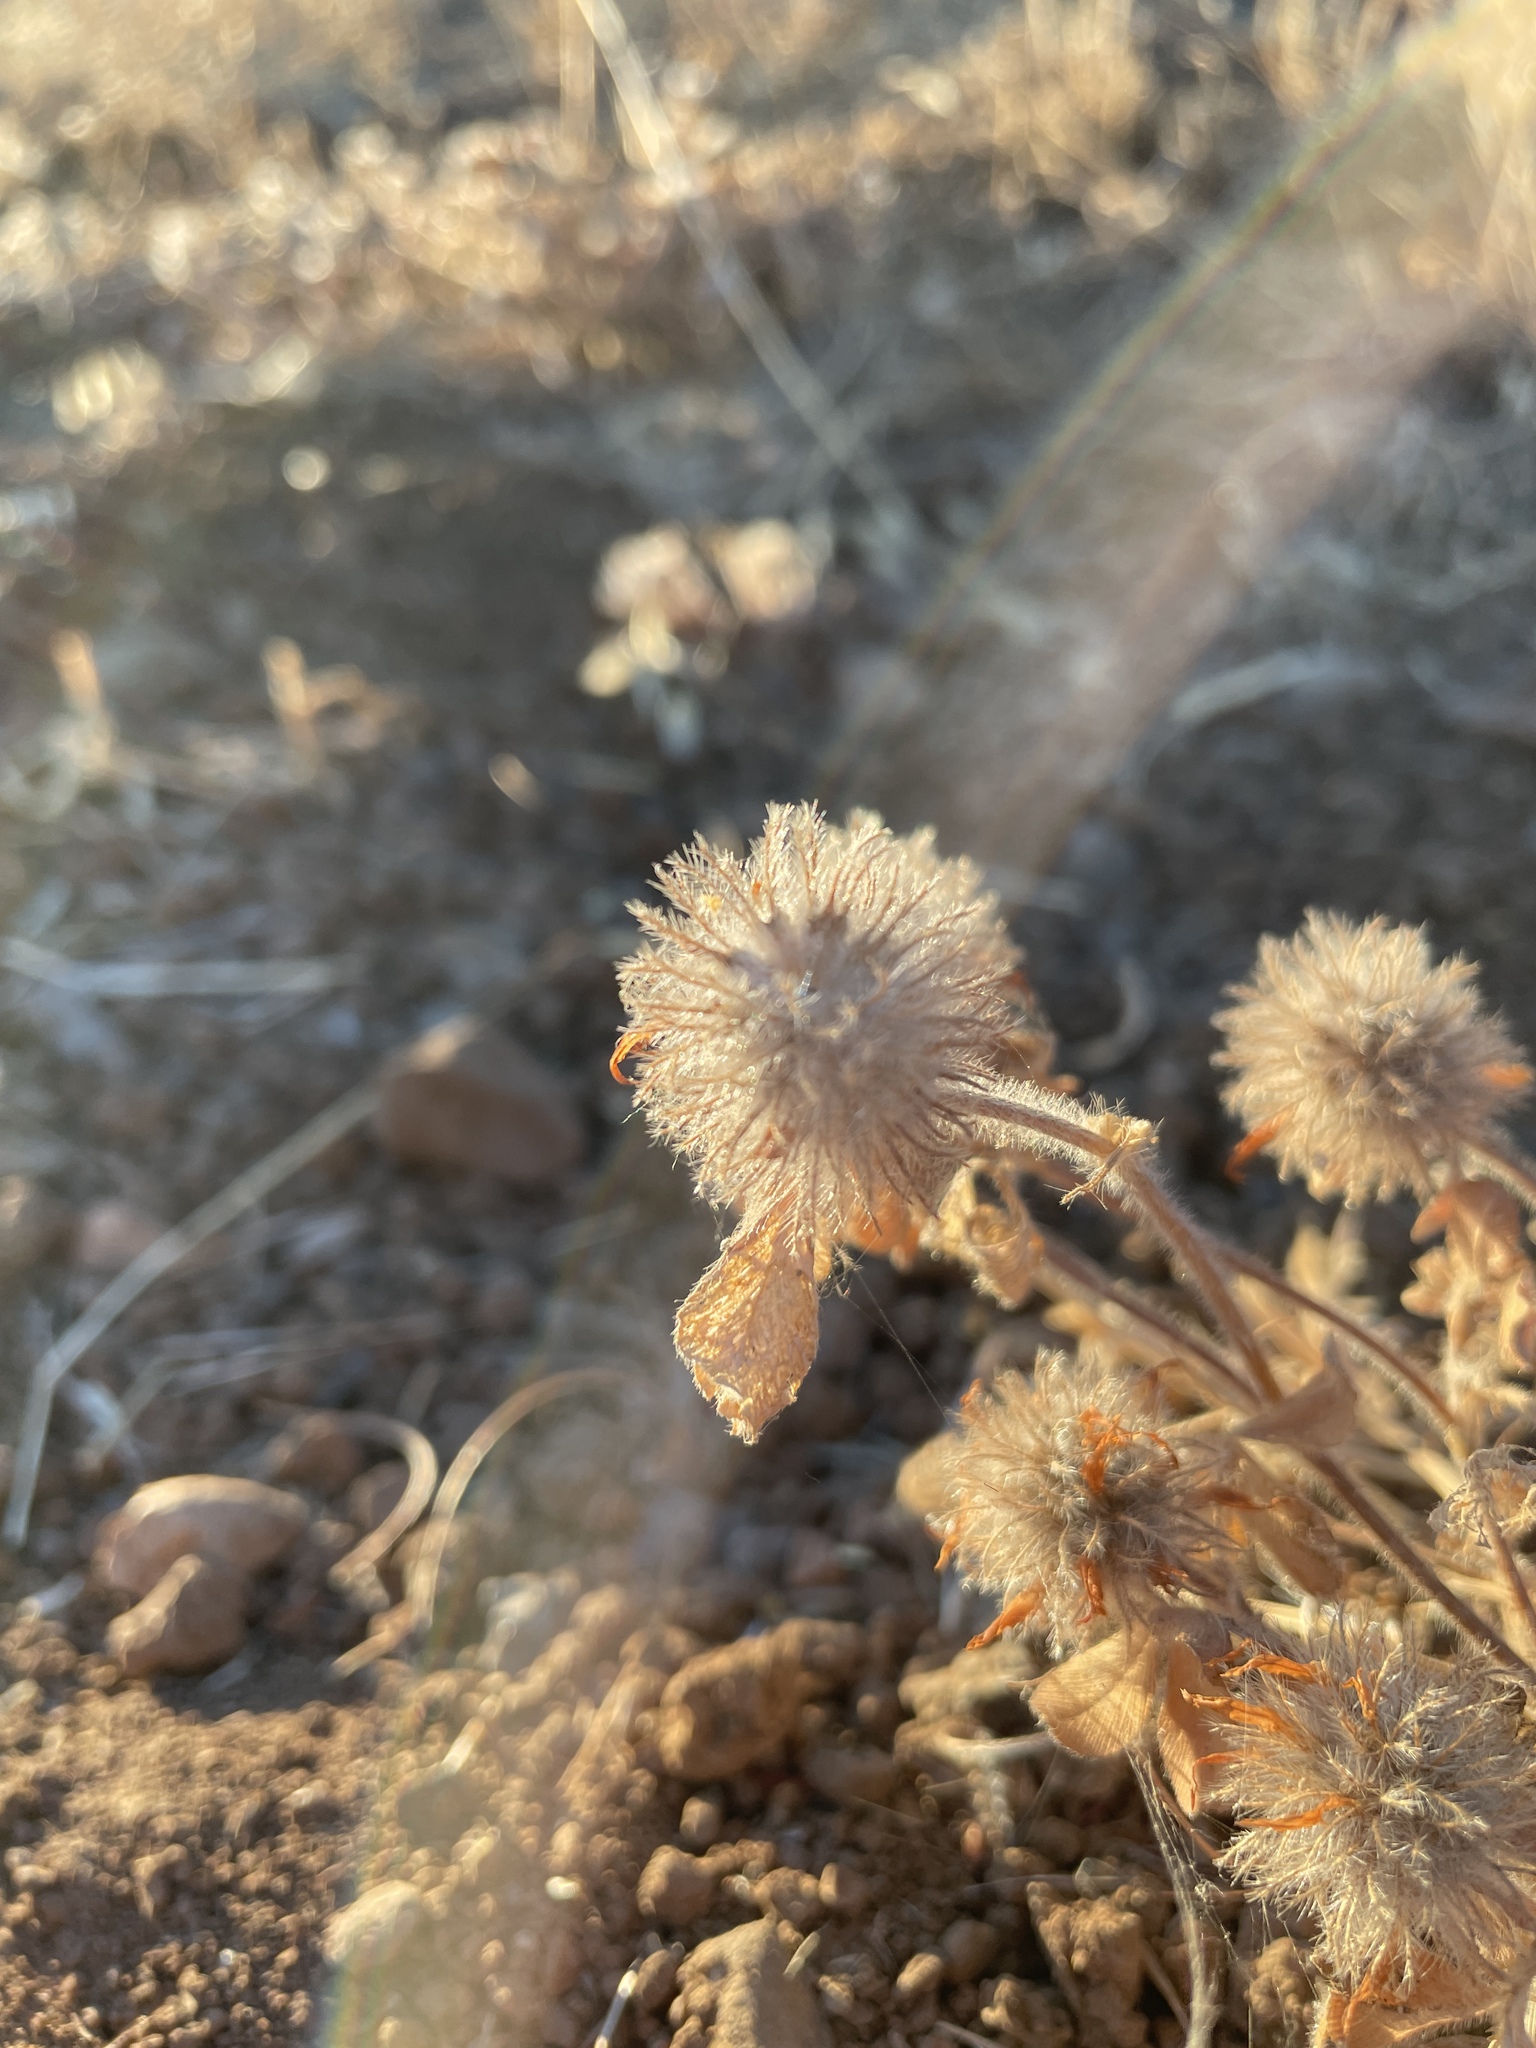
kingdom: Plantae
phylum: Tracheophyta
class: Magnoliopsida
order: Fabales
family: Fabaceae
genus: Trifolium
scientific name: Trifolium hirtum
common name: Rose clover
